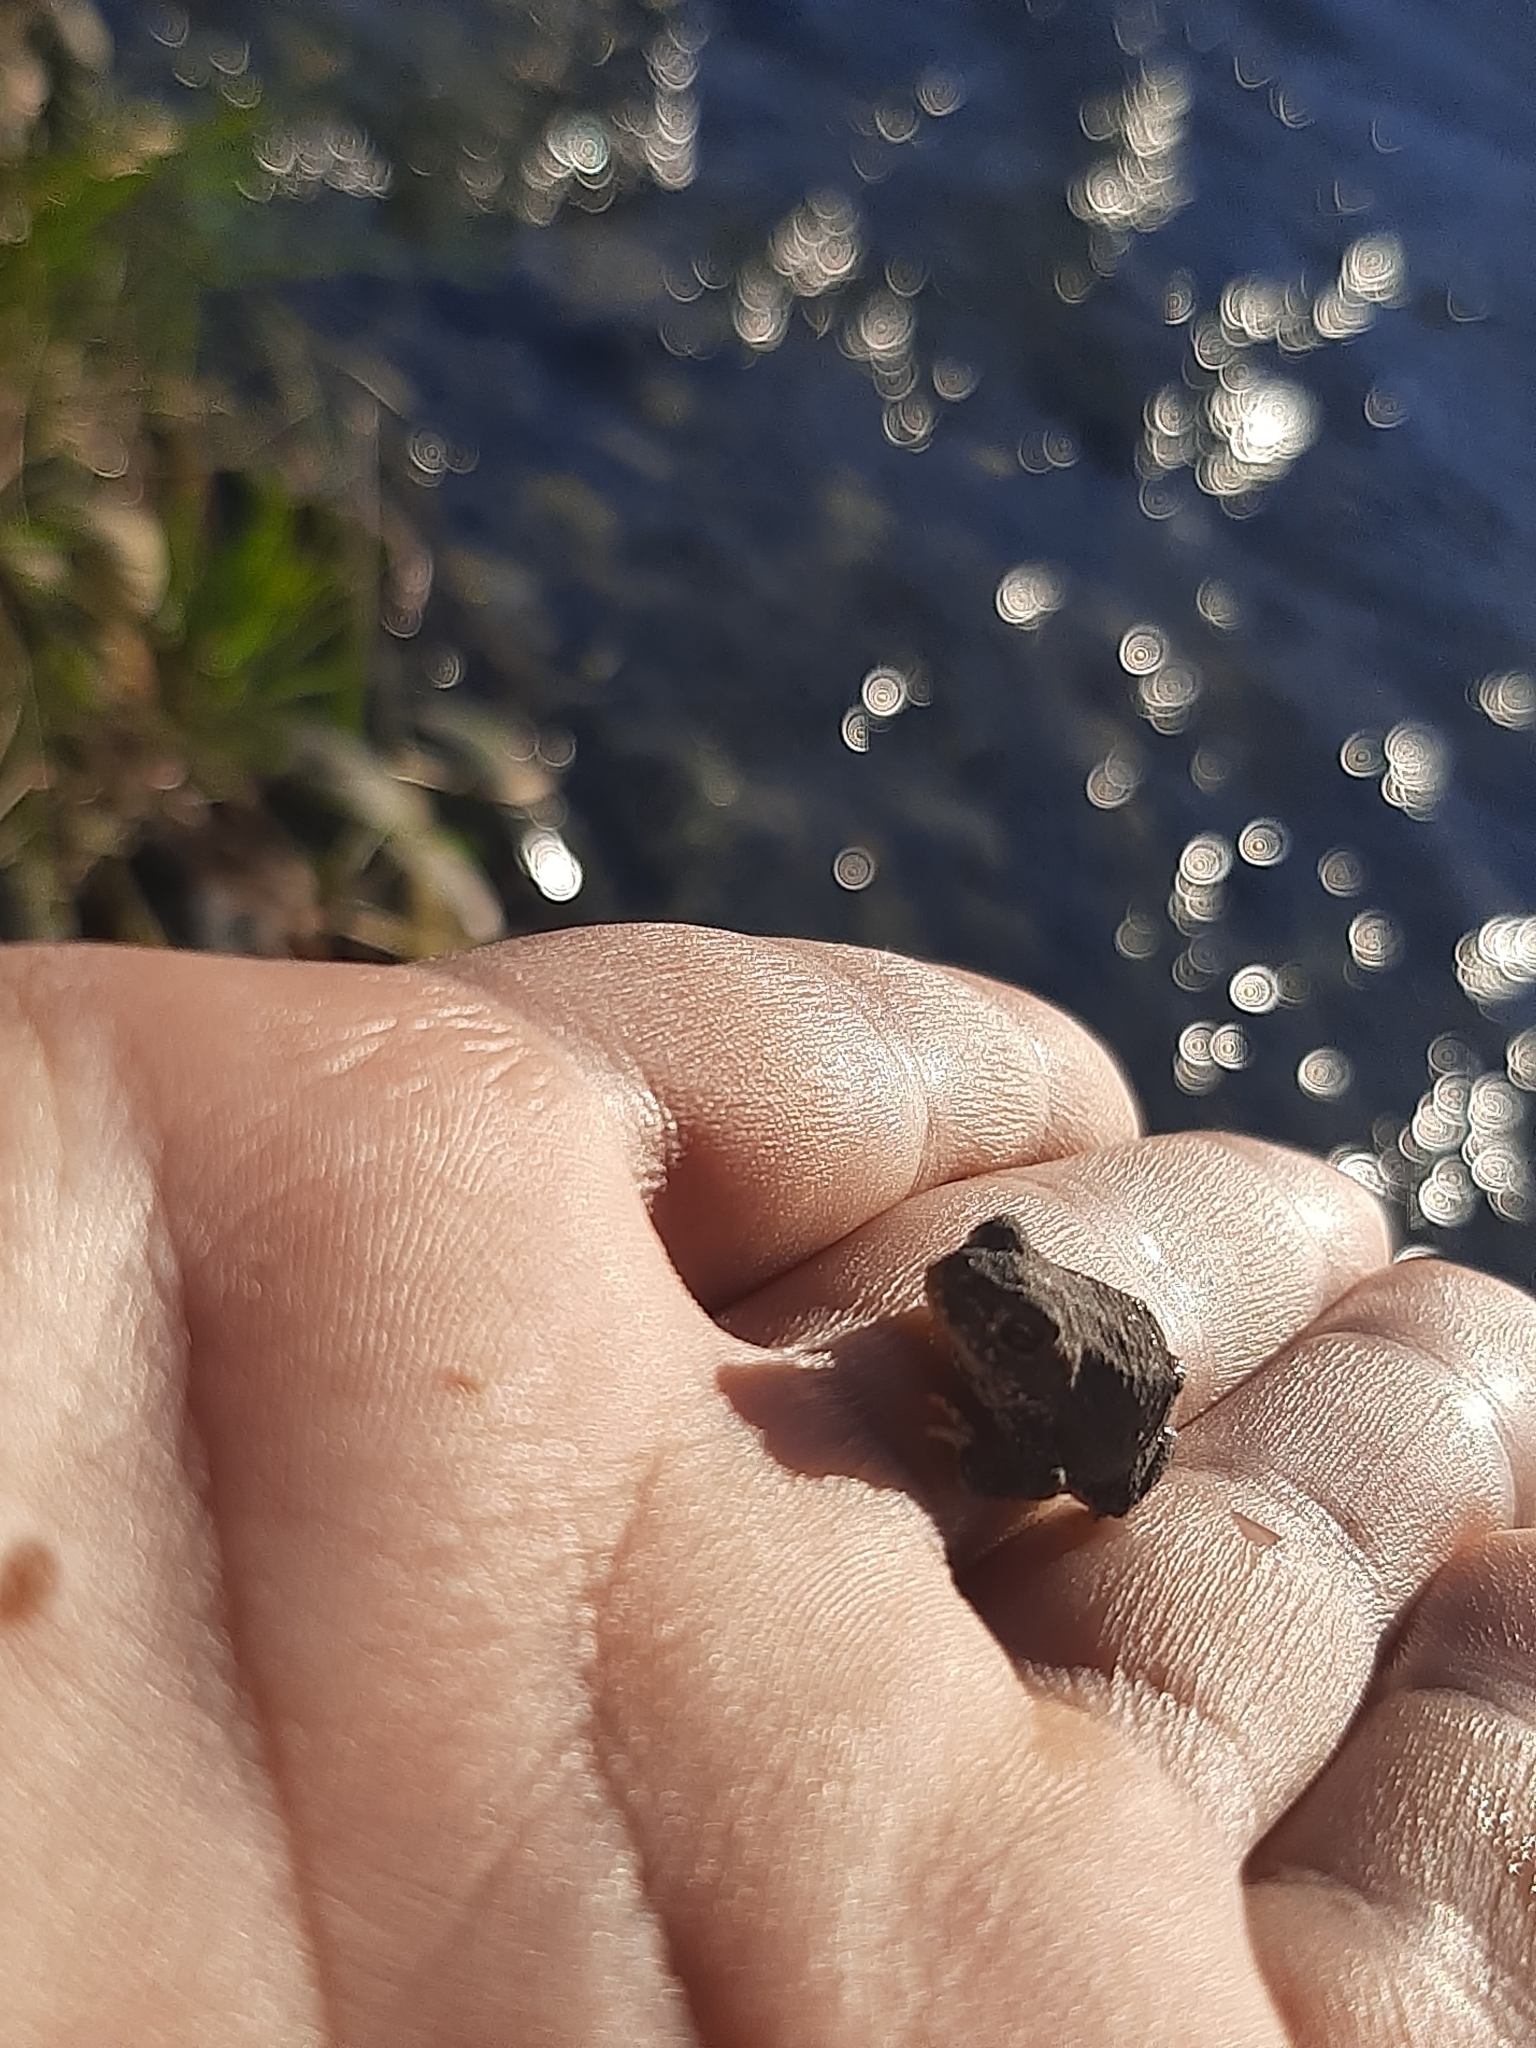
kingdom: Animalia
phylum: Chordata
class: Amphibia
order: Anura
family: Bufonidae
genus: Rhinella
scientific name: Rhinella spinulosa
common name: Warty toad
